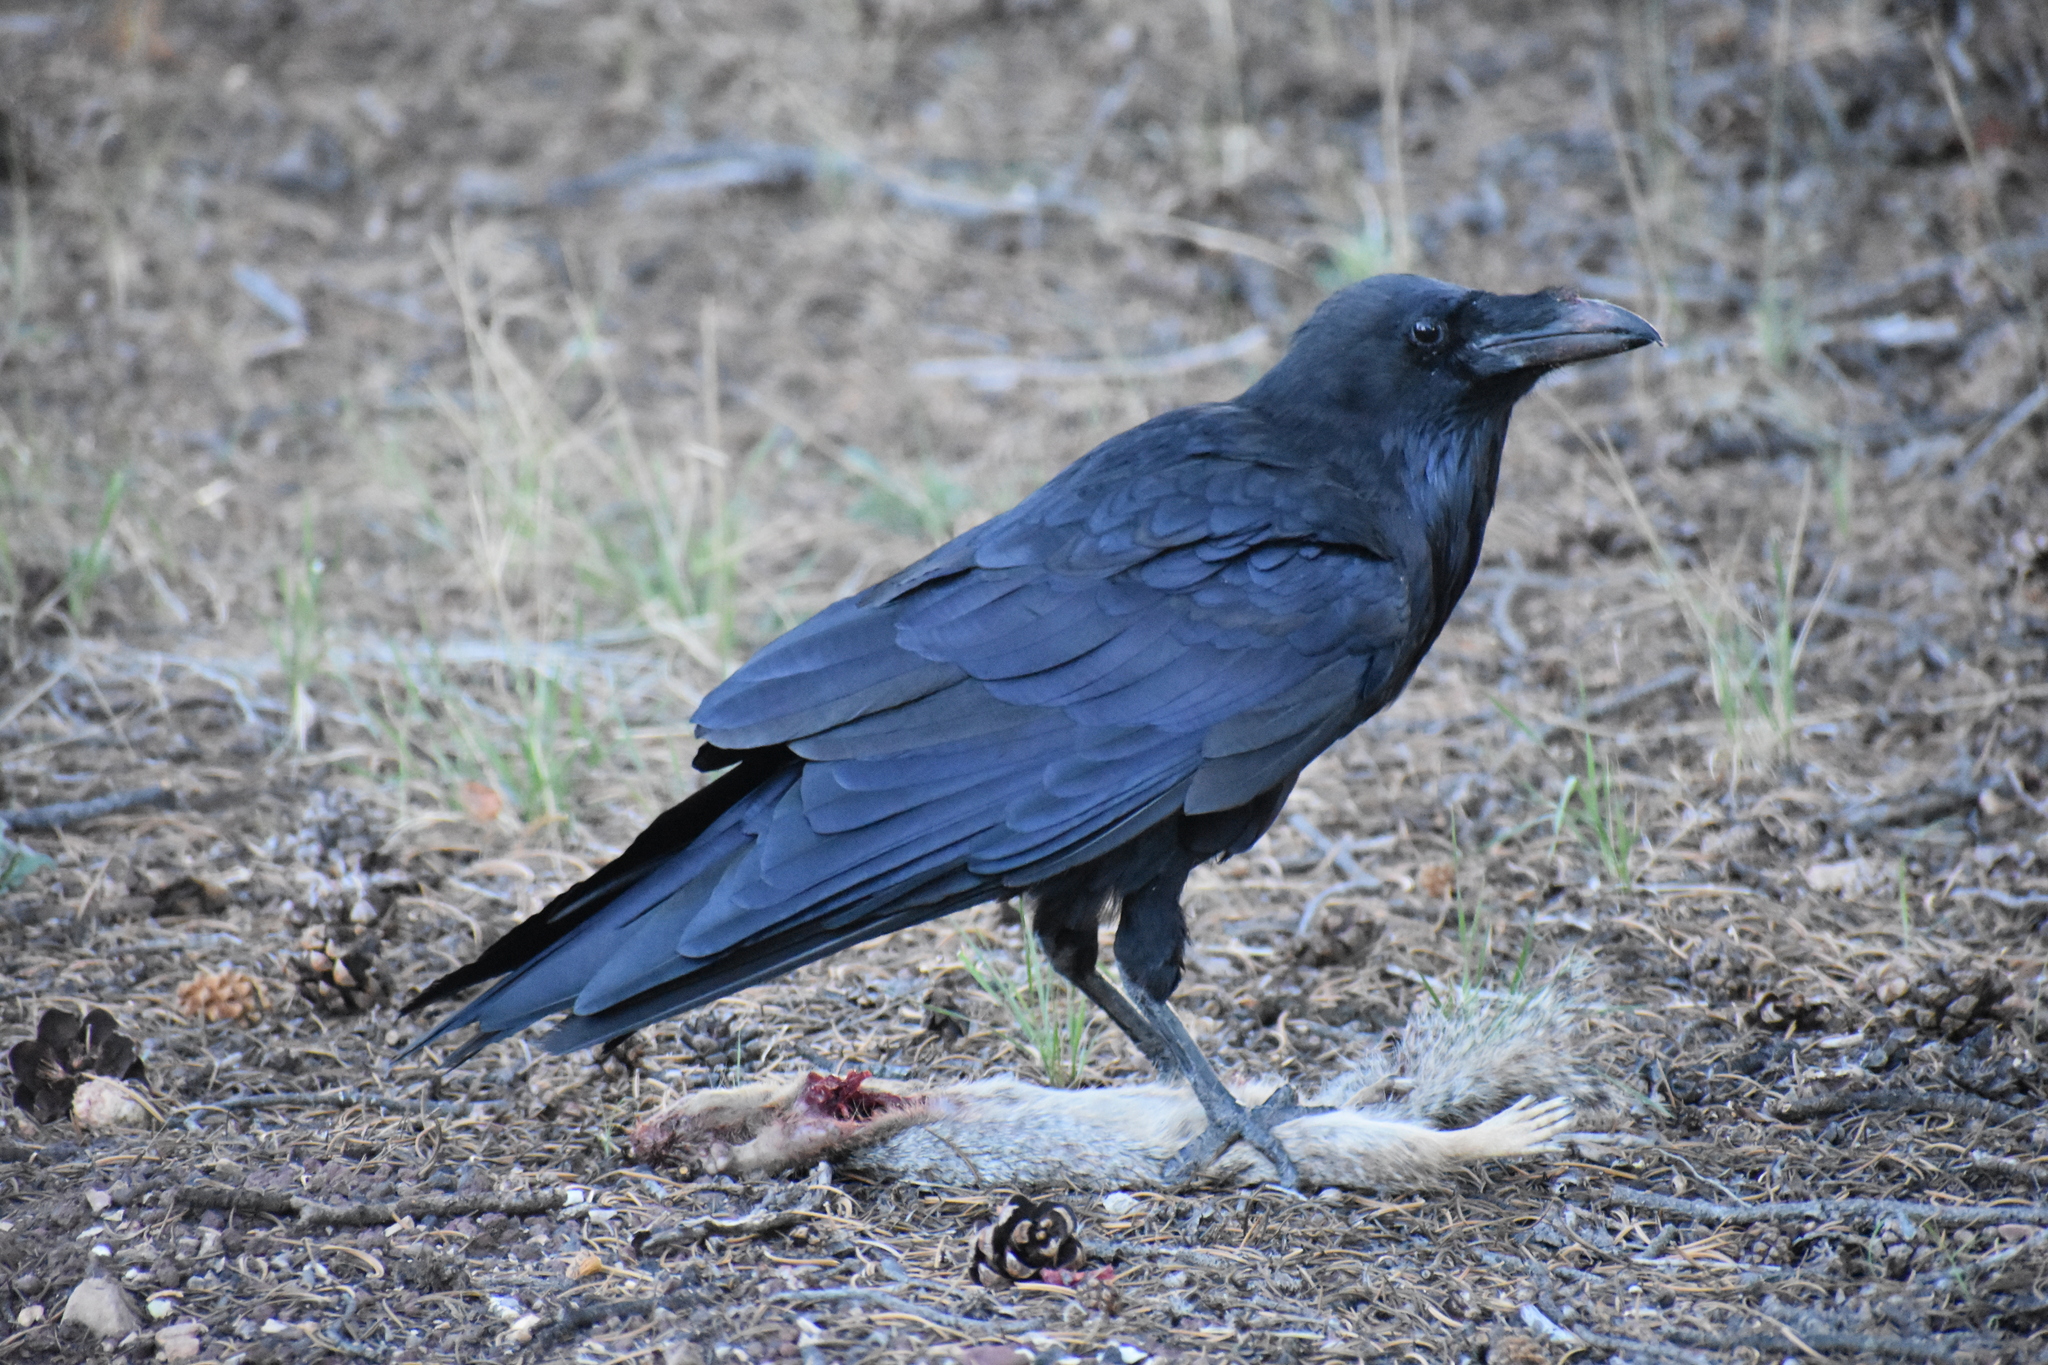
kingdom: Animalia
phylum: Chordata
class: Mammalia
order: Rodentia
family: Sciuridae
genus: Otospermophilus
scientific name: Otospermophilus variegatus
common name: Rock squirrel
